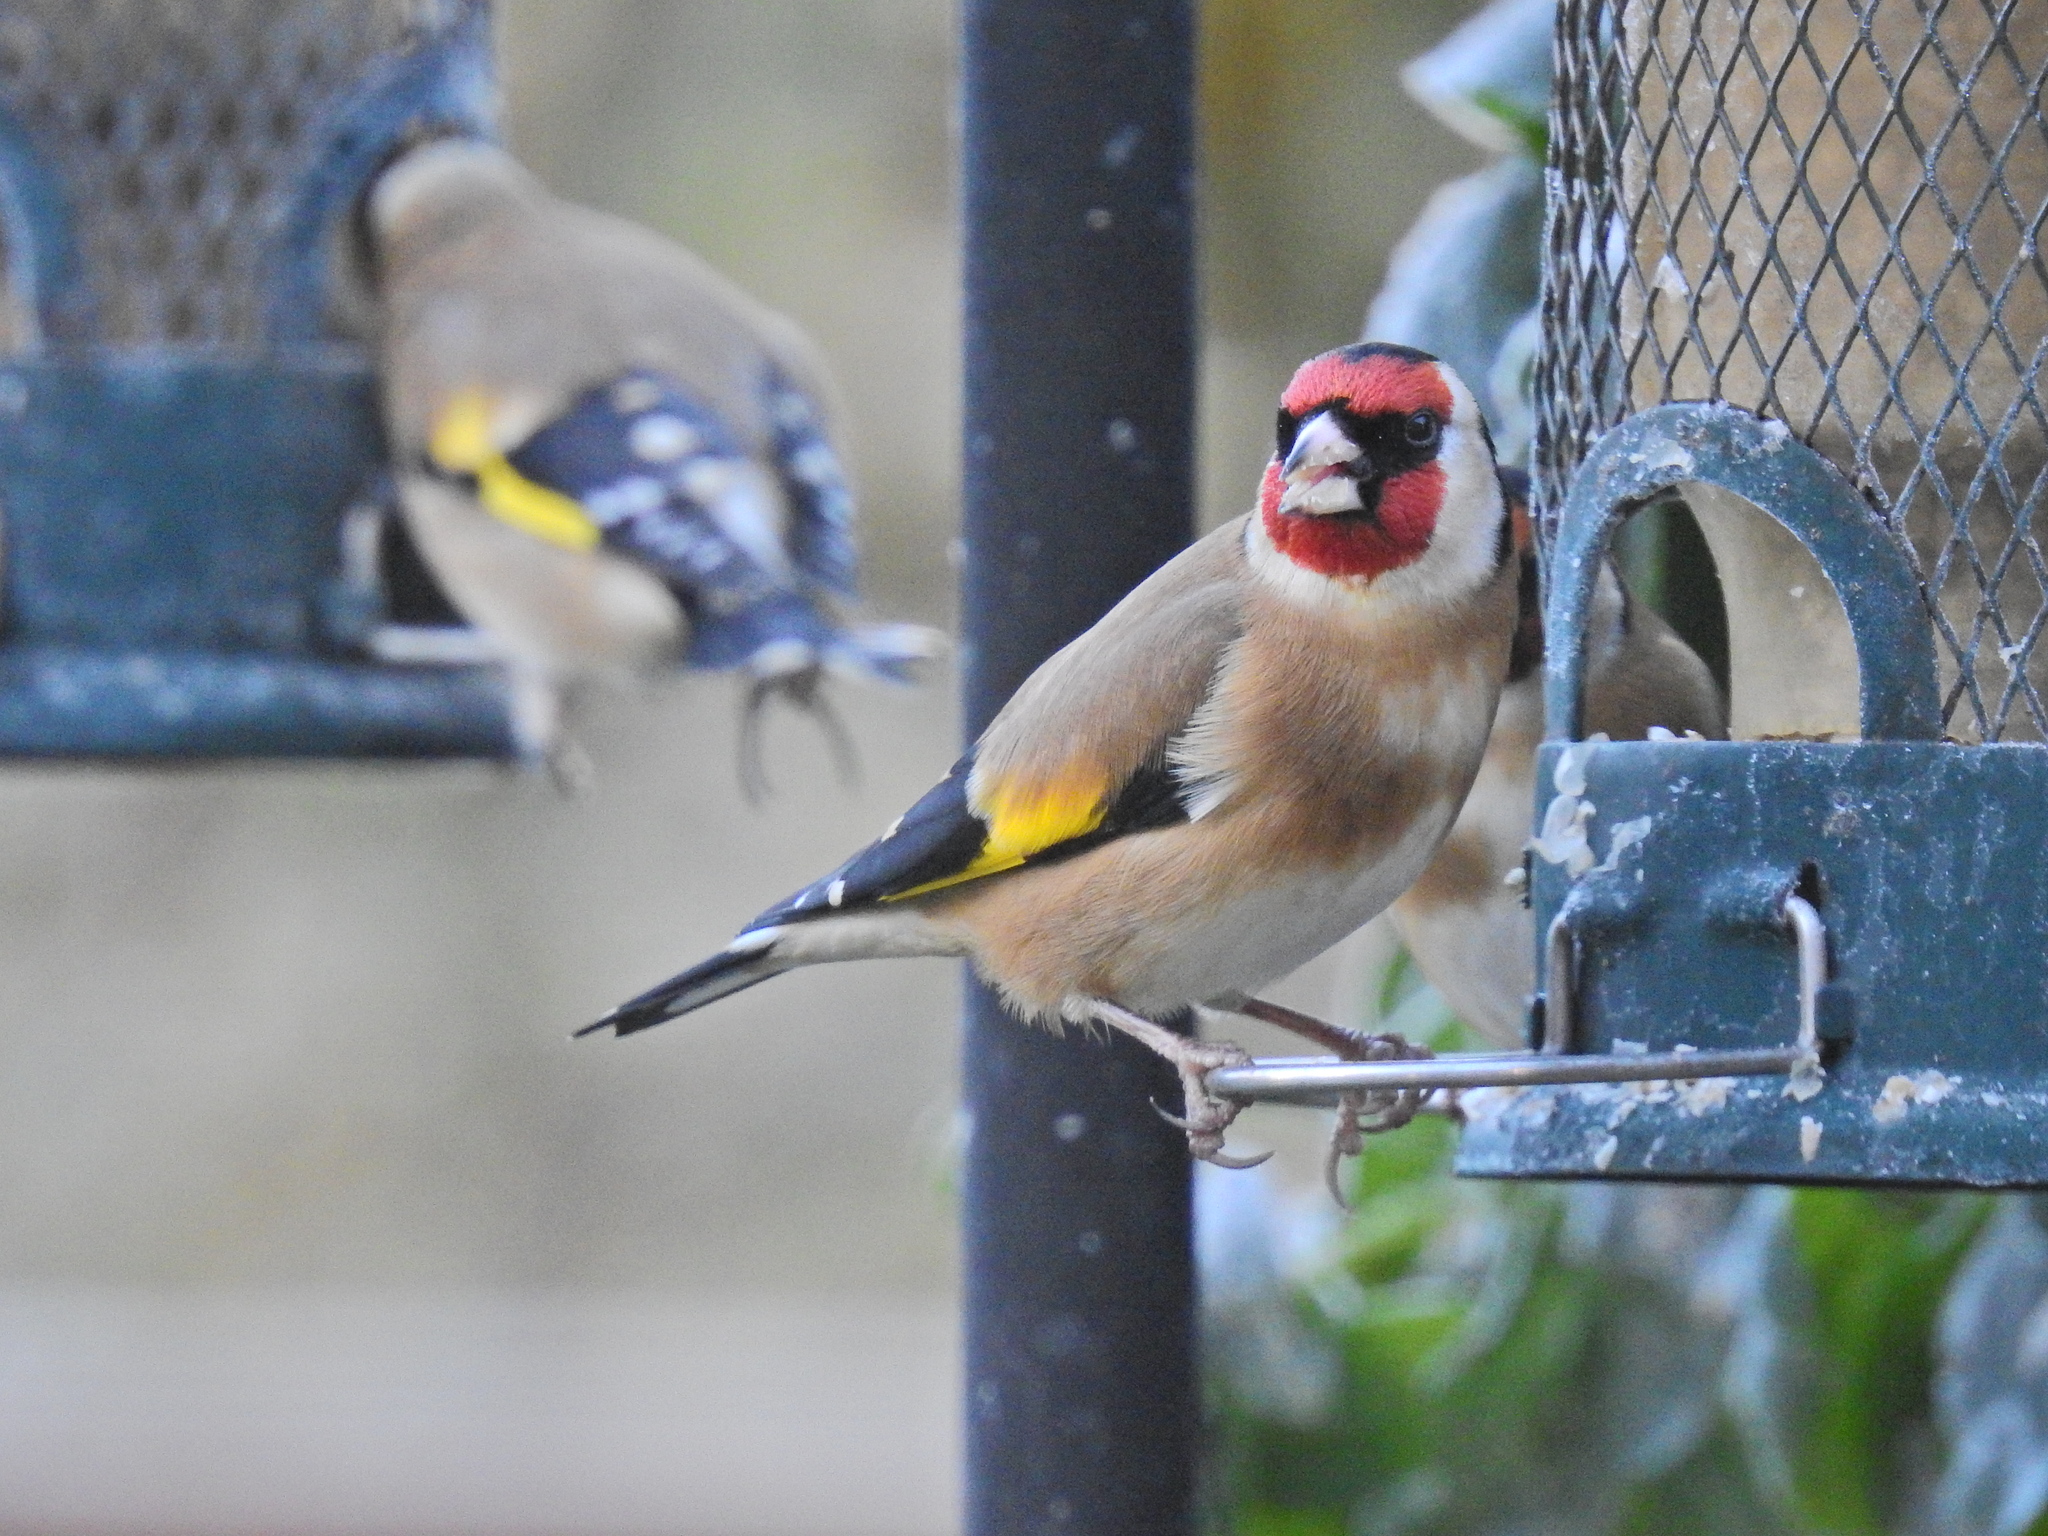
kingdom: Animalia
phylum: Chordata
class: Aves
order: Passeriformes
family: Fringillidae
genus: Carduelis
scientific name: Carduelis carduelis
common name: European goldfinch
